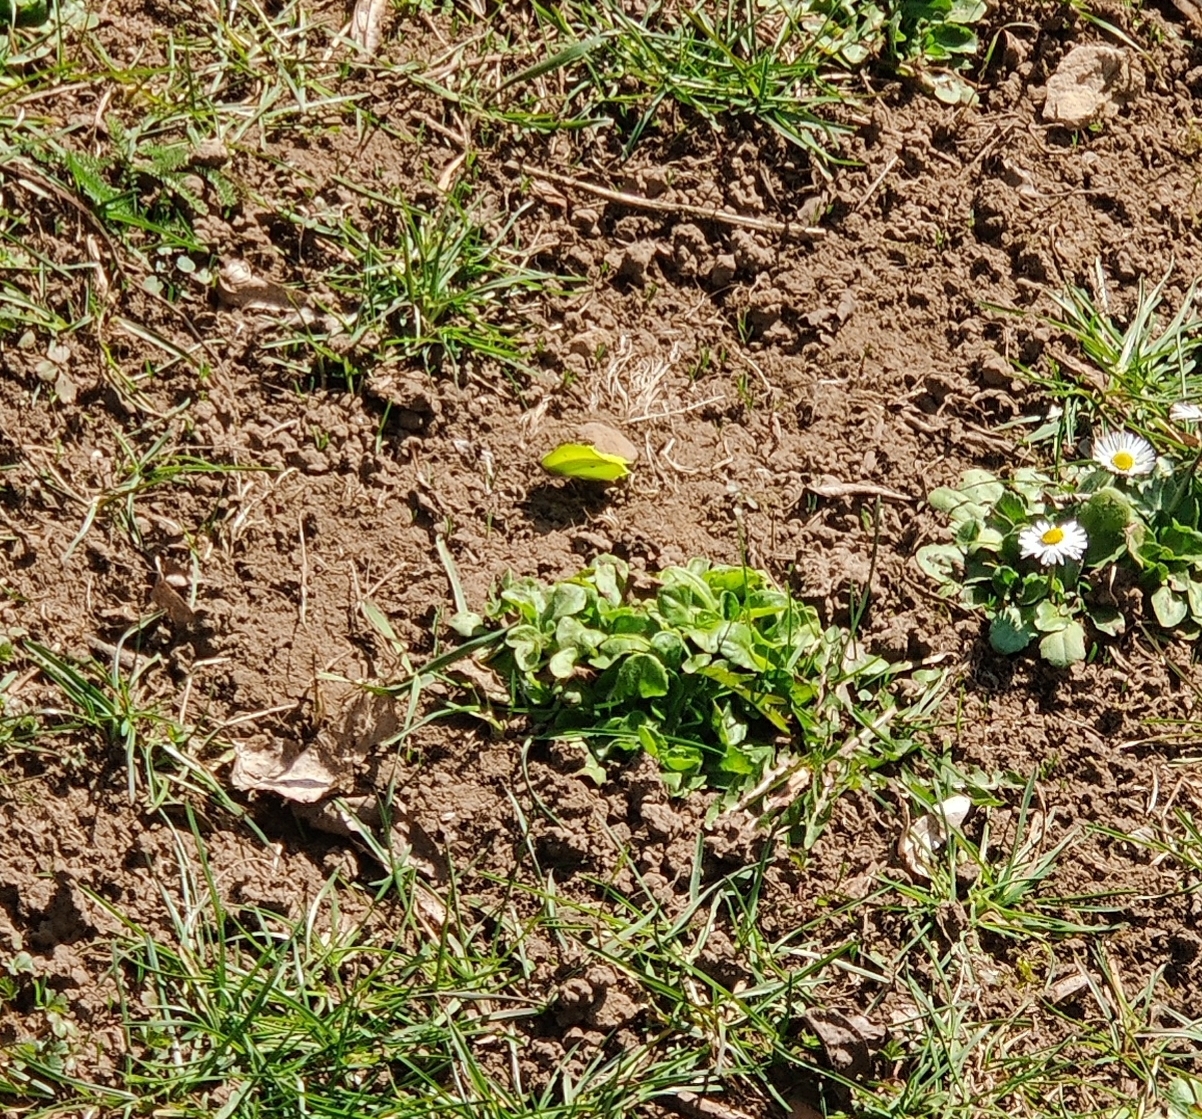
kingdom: Animalia
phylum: Arthropoda
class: Insecta
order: Lepidoptera
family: Pieridae
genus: Gonepteryx
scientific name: Gonepteryx rhamni
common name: Brimstone
